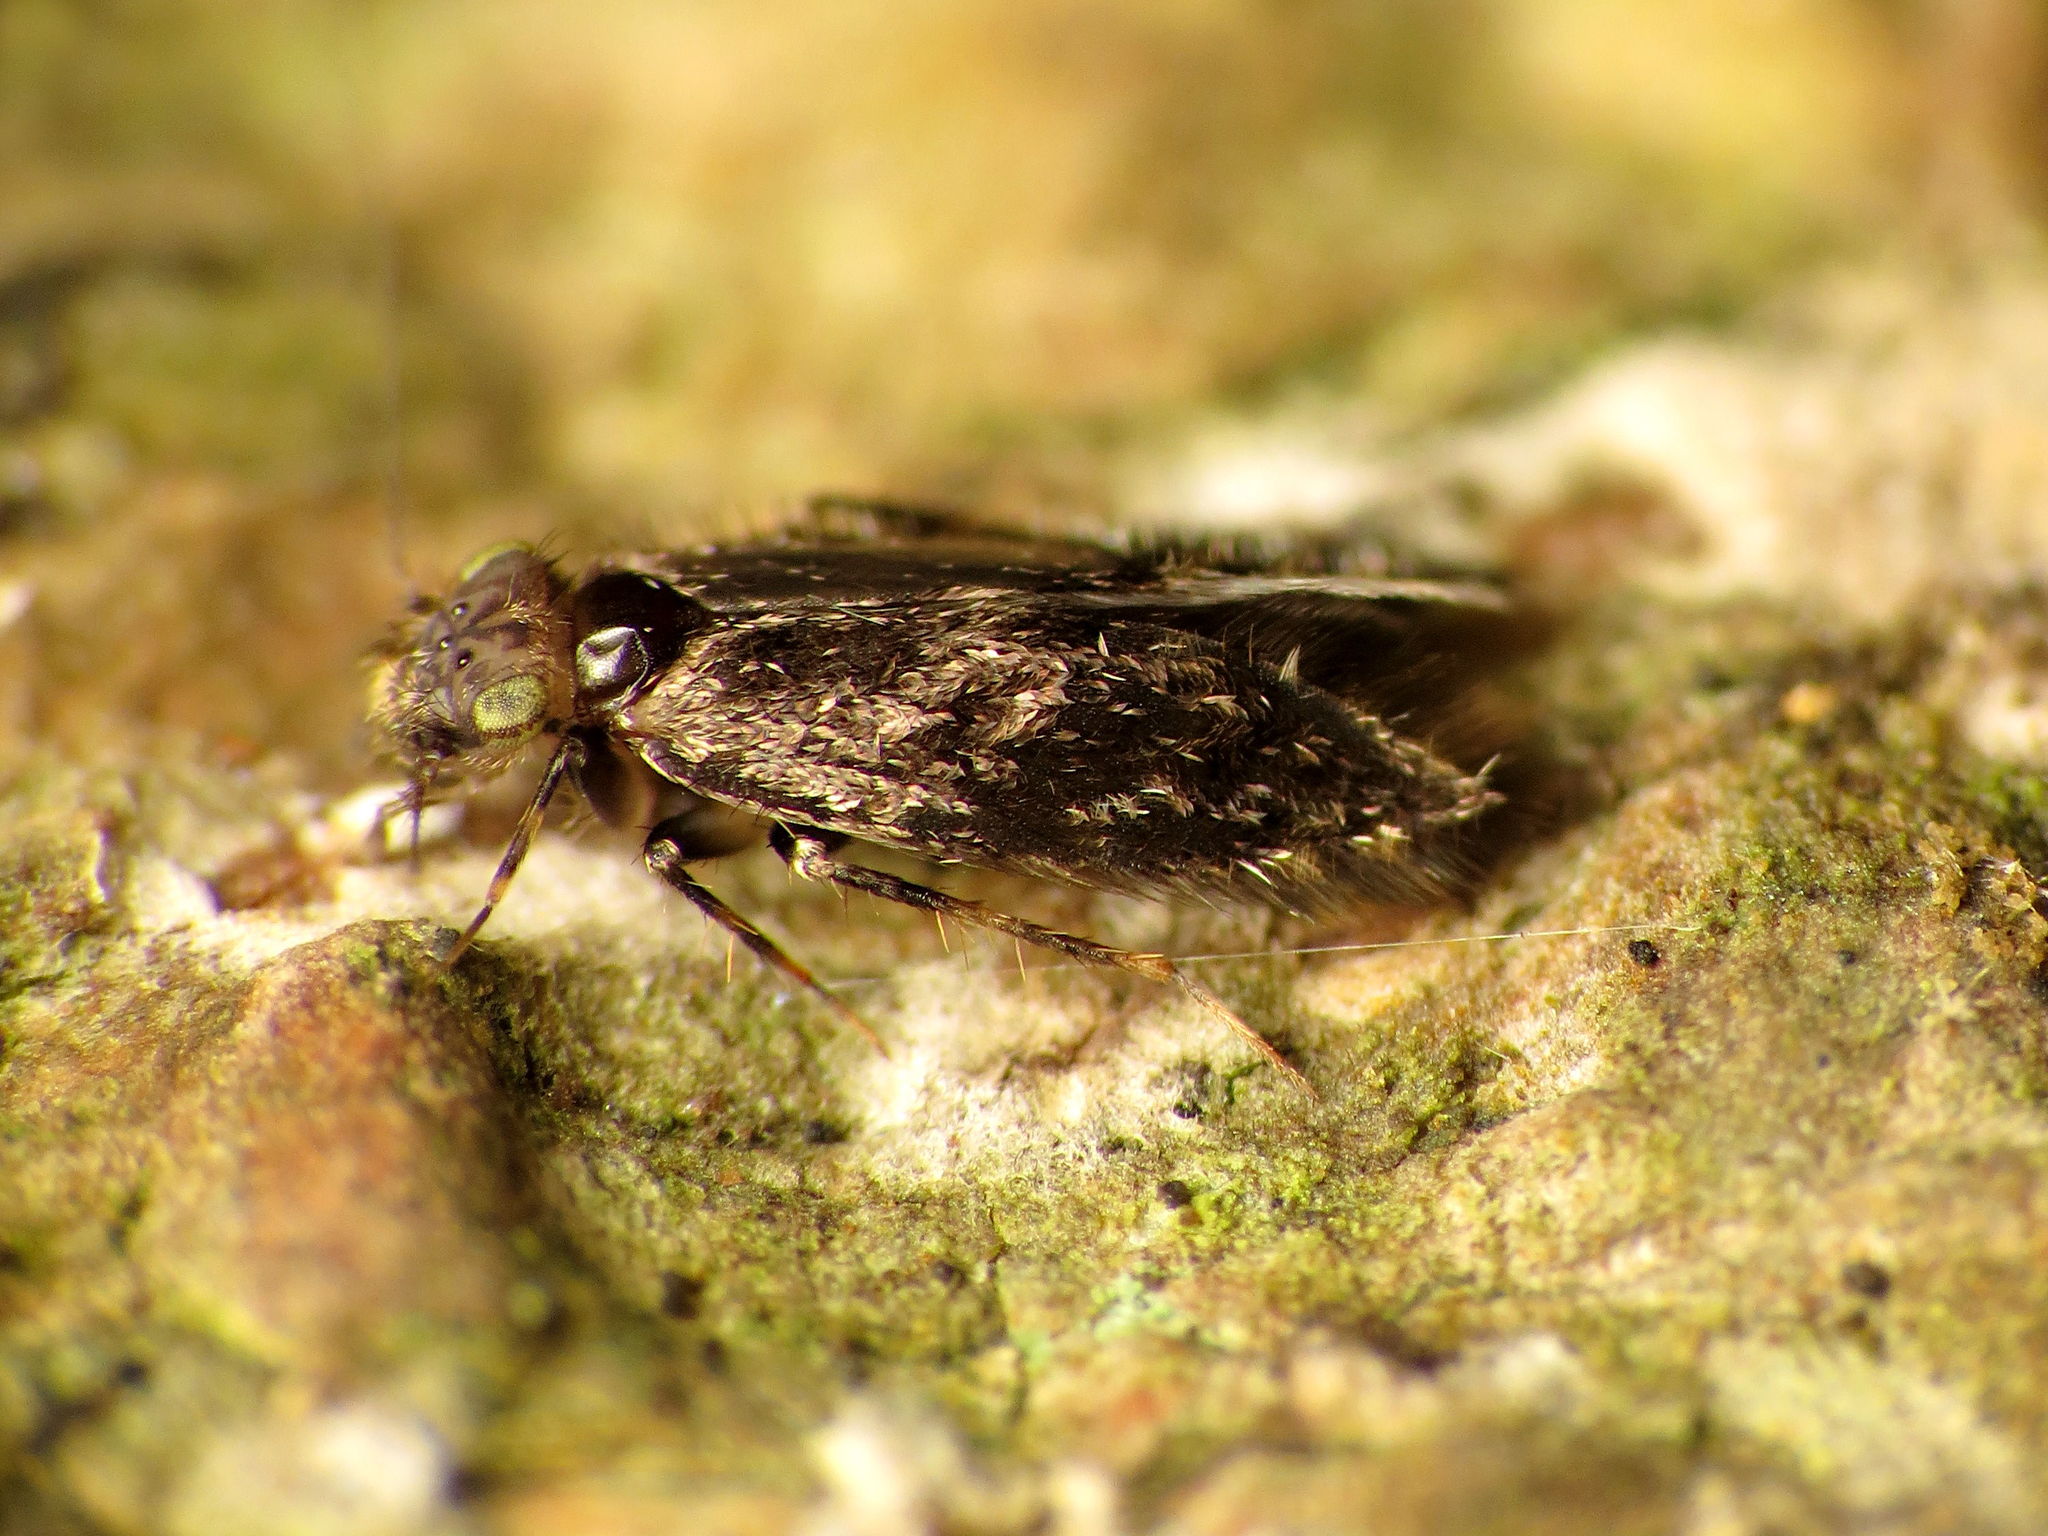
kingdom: Animalia
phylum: Arthropoda
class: Insecta
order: Psocodea
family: Lepidopsocidae
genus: Echmepteryx
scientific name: Echmepteryx hageni
